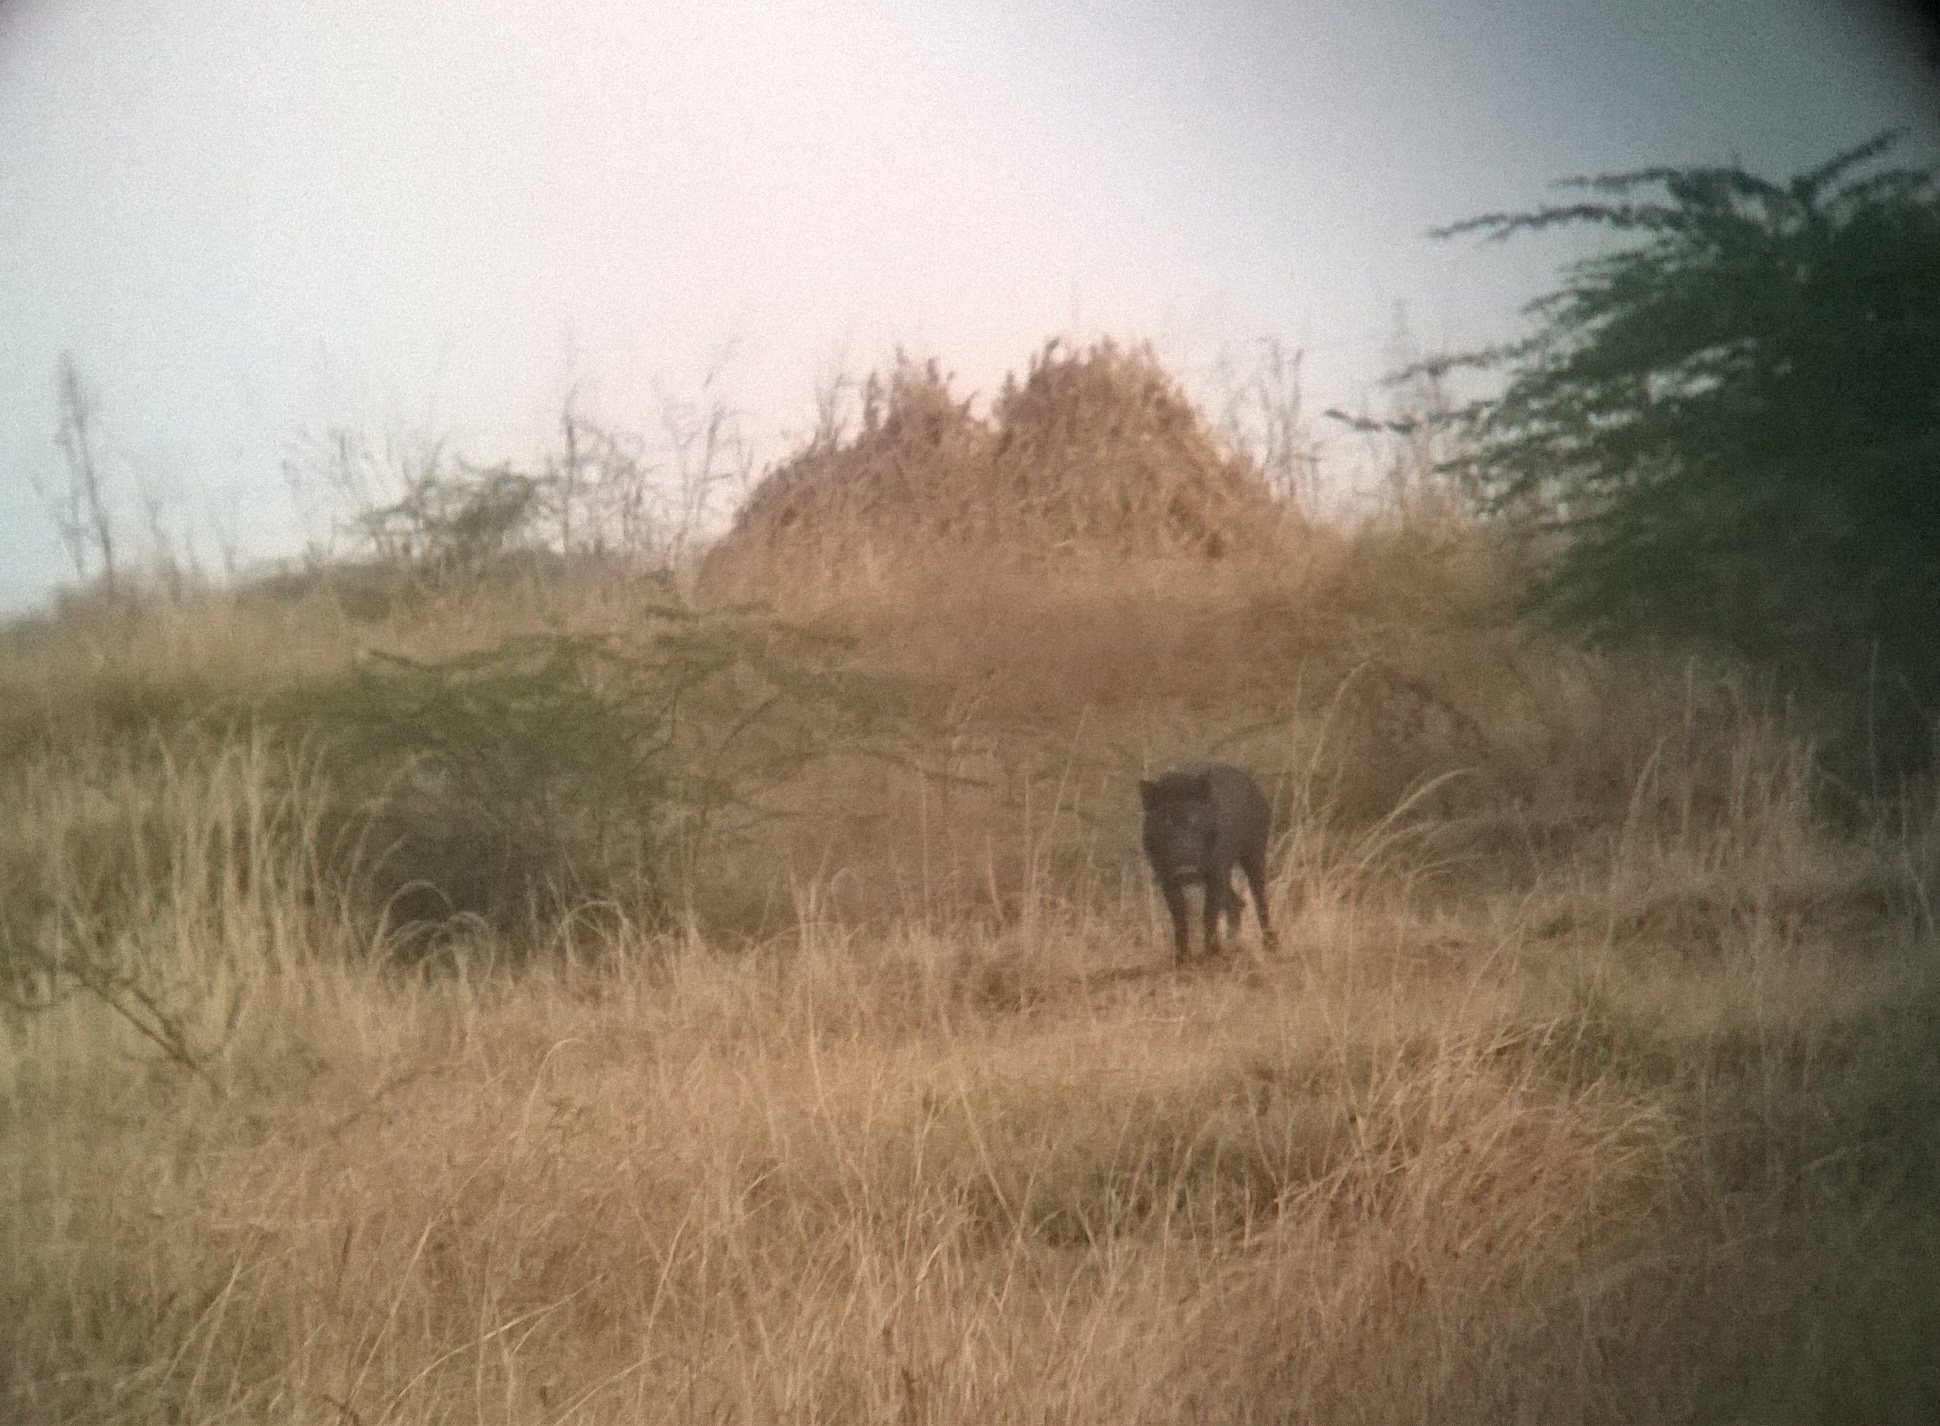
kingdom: Animalia
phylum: Chordata
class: Mammalia
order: Artiodactyla
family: Suidae
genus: Sus
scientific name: Sus scrofa
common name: Wild boar
